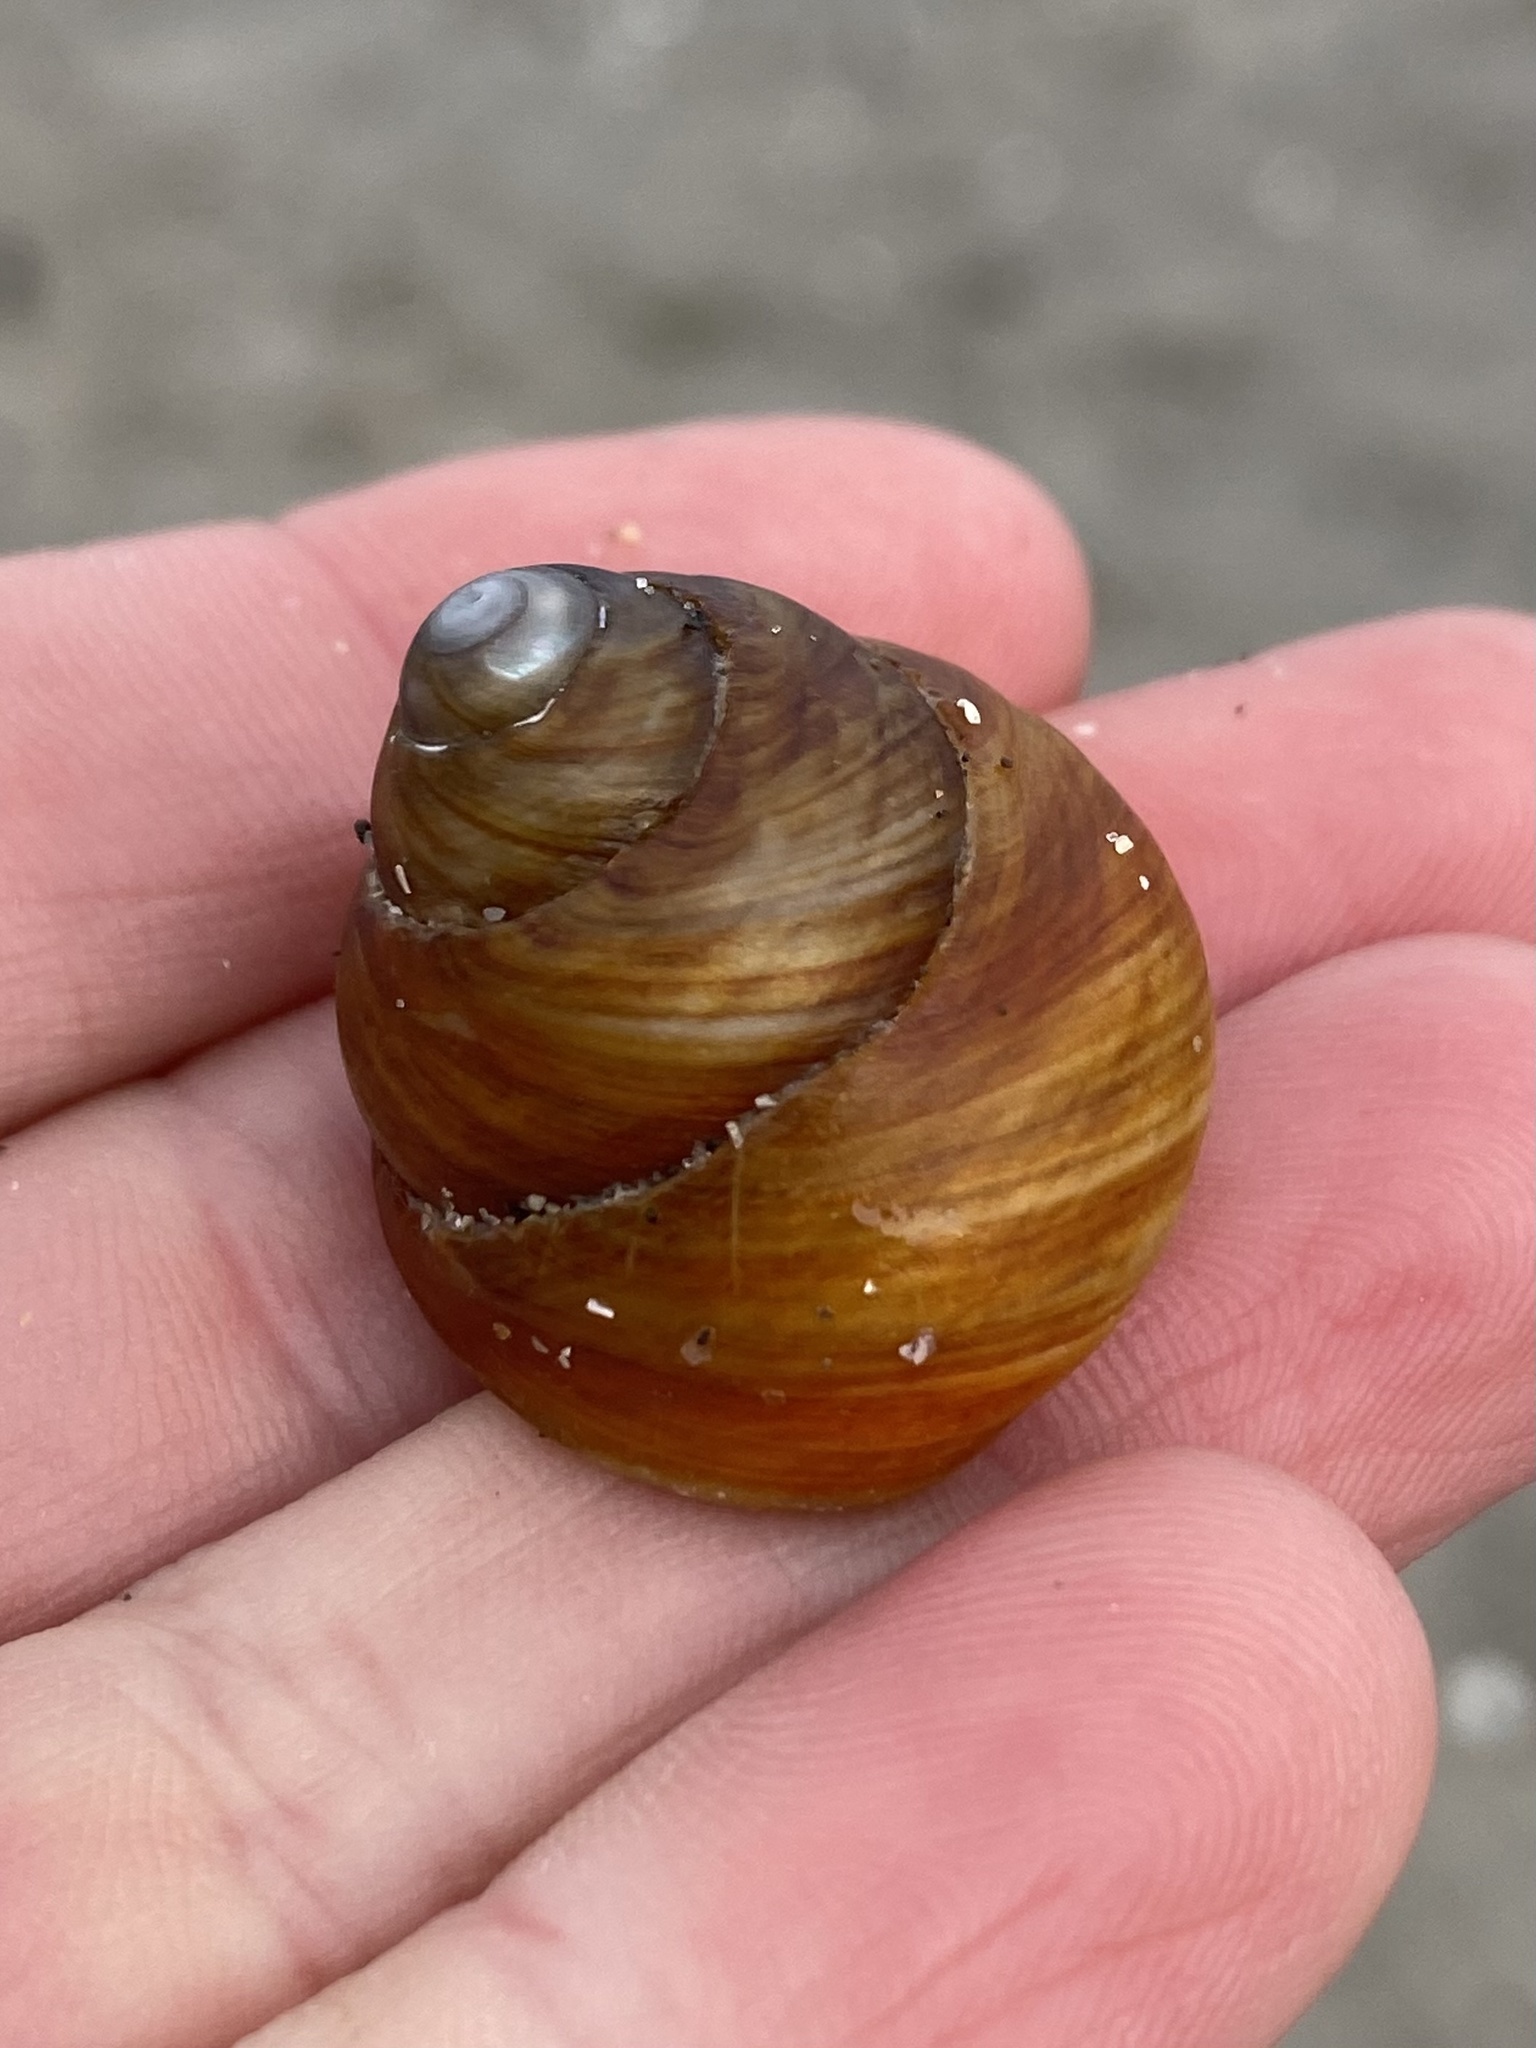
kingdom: Animalia
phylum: Mollusca
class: Gastropoda
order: Trochida
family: Tegulidae
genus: Tegula
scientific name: Tegula brunnea
